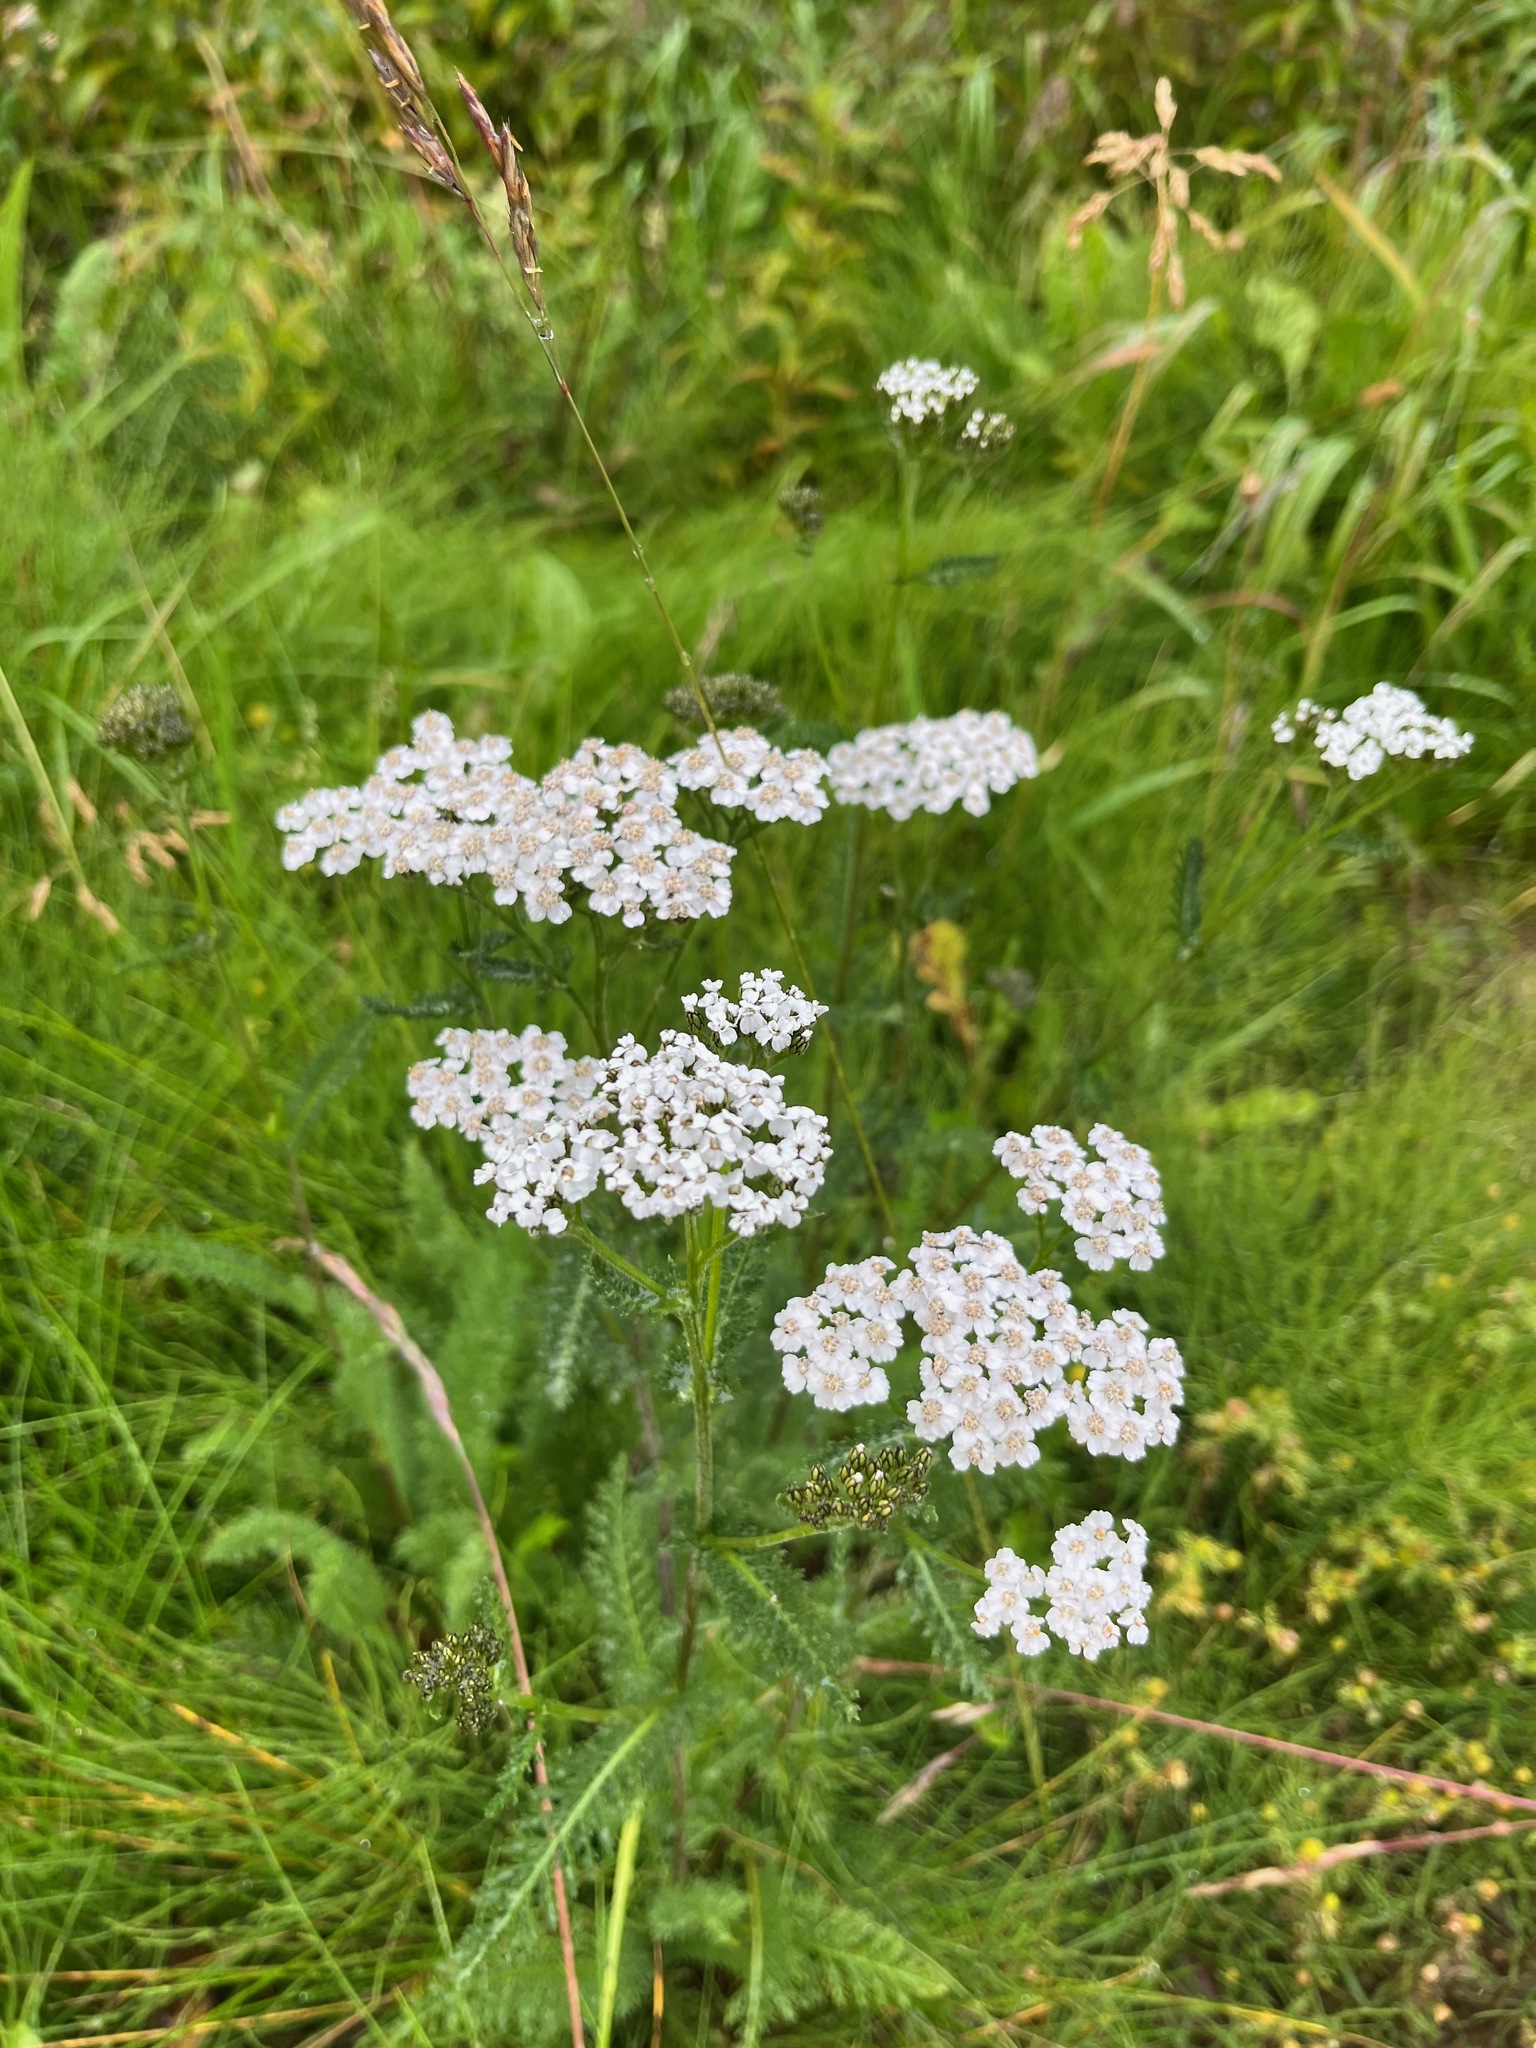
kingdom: Plantae
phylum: Tracheophyta
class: Magnoliopsida
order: Asterales
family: Asteraceae
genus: Achillea
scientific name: Achillea millefolium
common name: Yarrow
